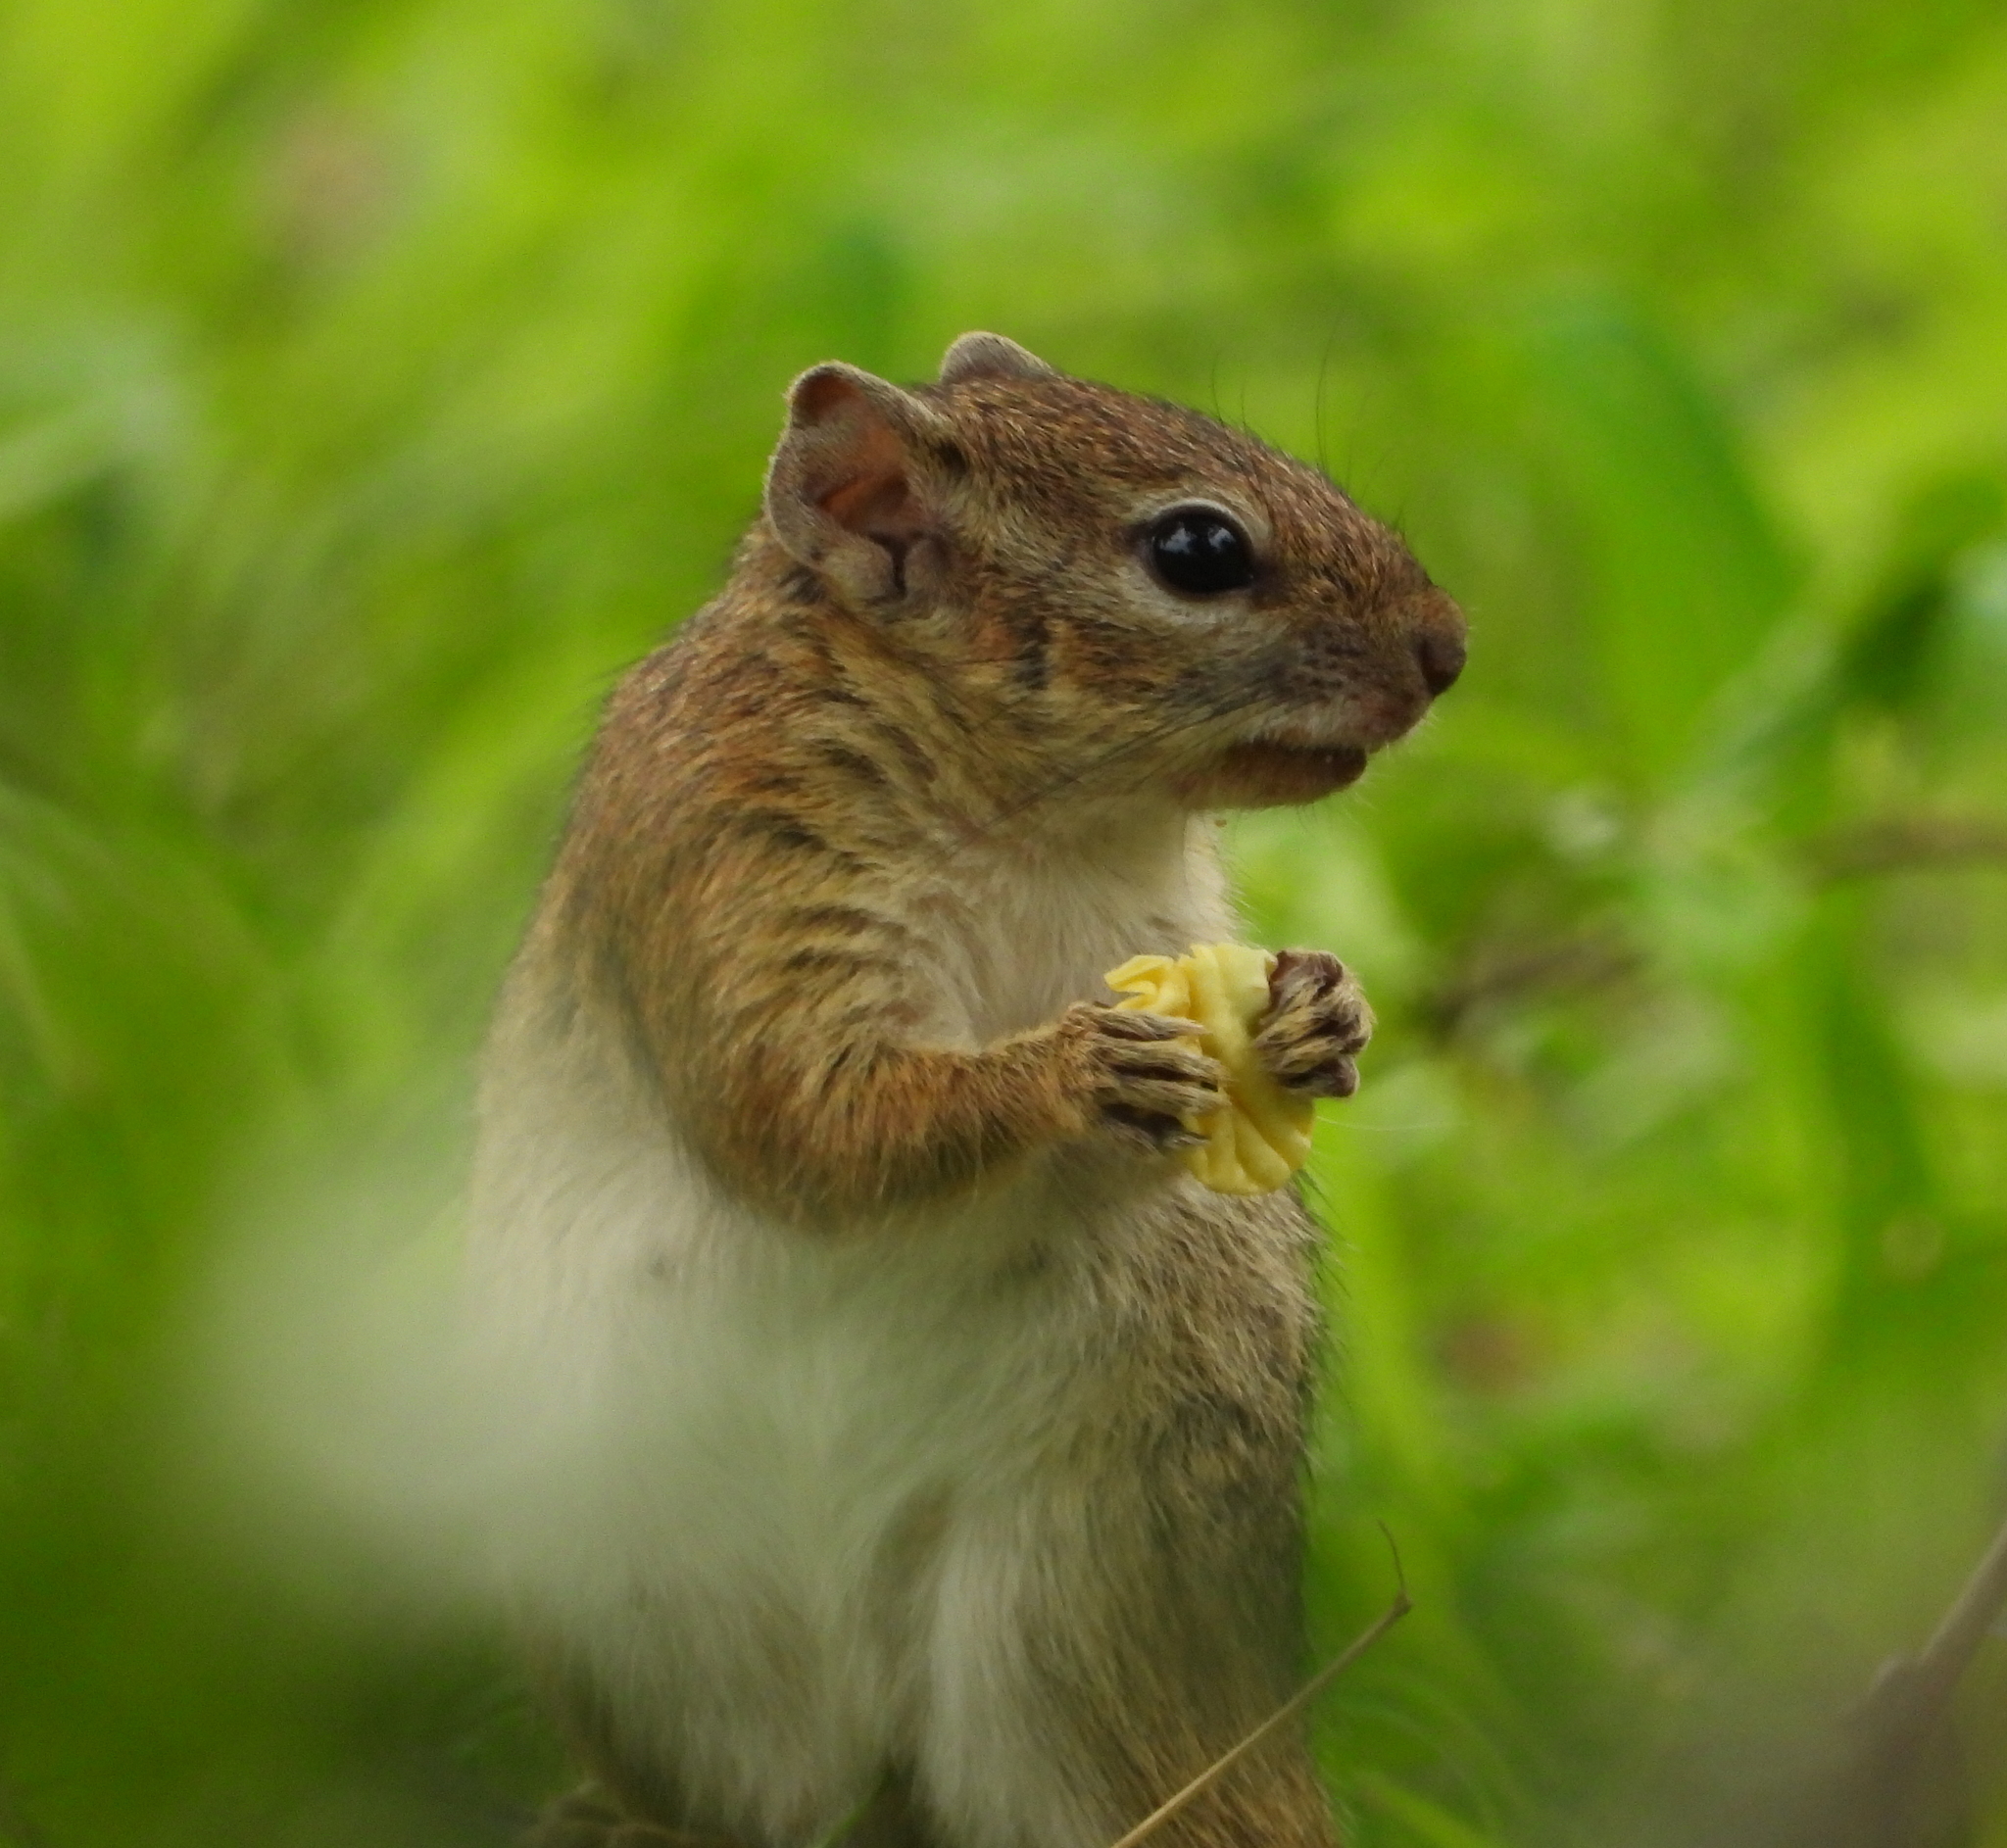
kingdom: Animalia
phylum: Chordata
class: Mammalia
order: Rodentia
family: Sciuridae
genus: Paraxerus
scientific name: Paraxerus cepapi
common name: Smith's bush squirrel
